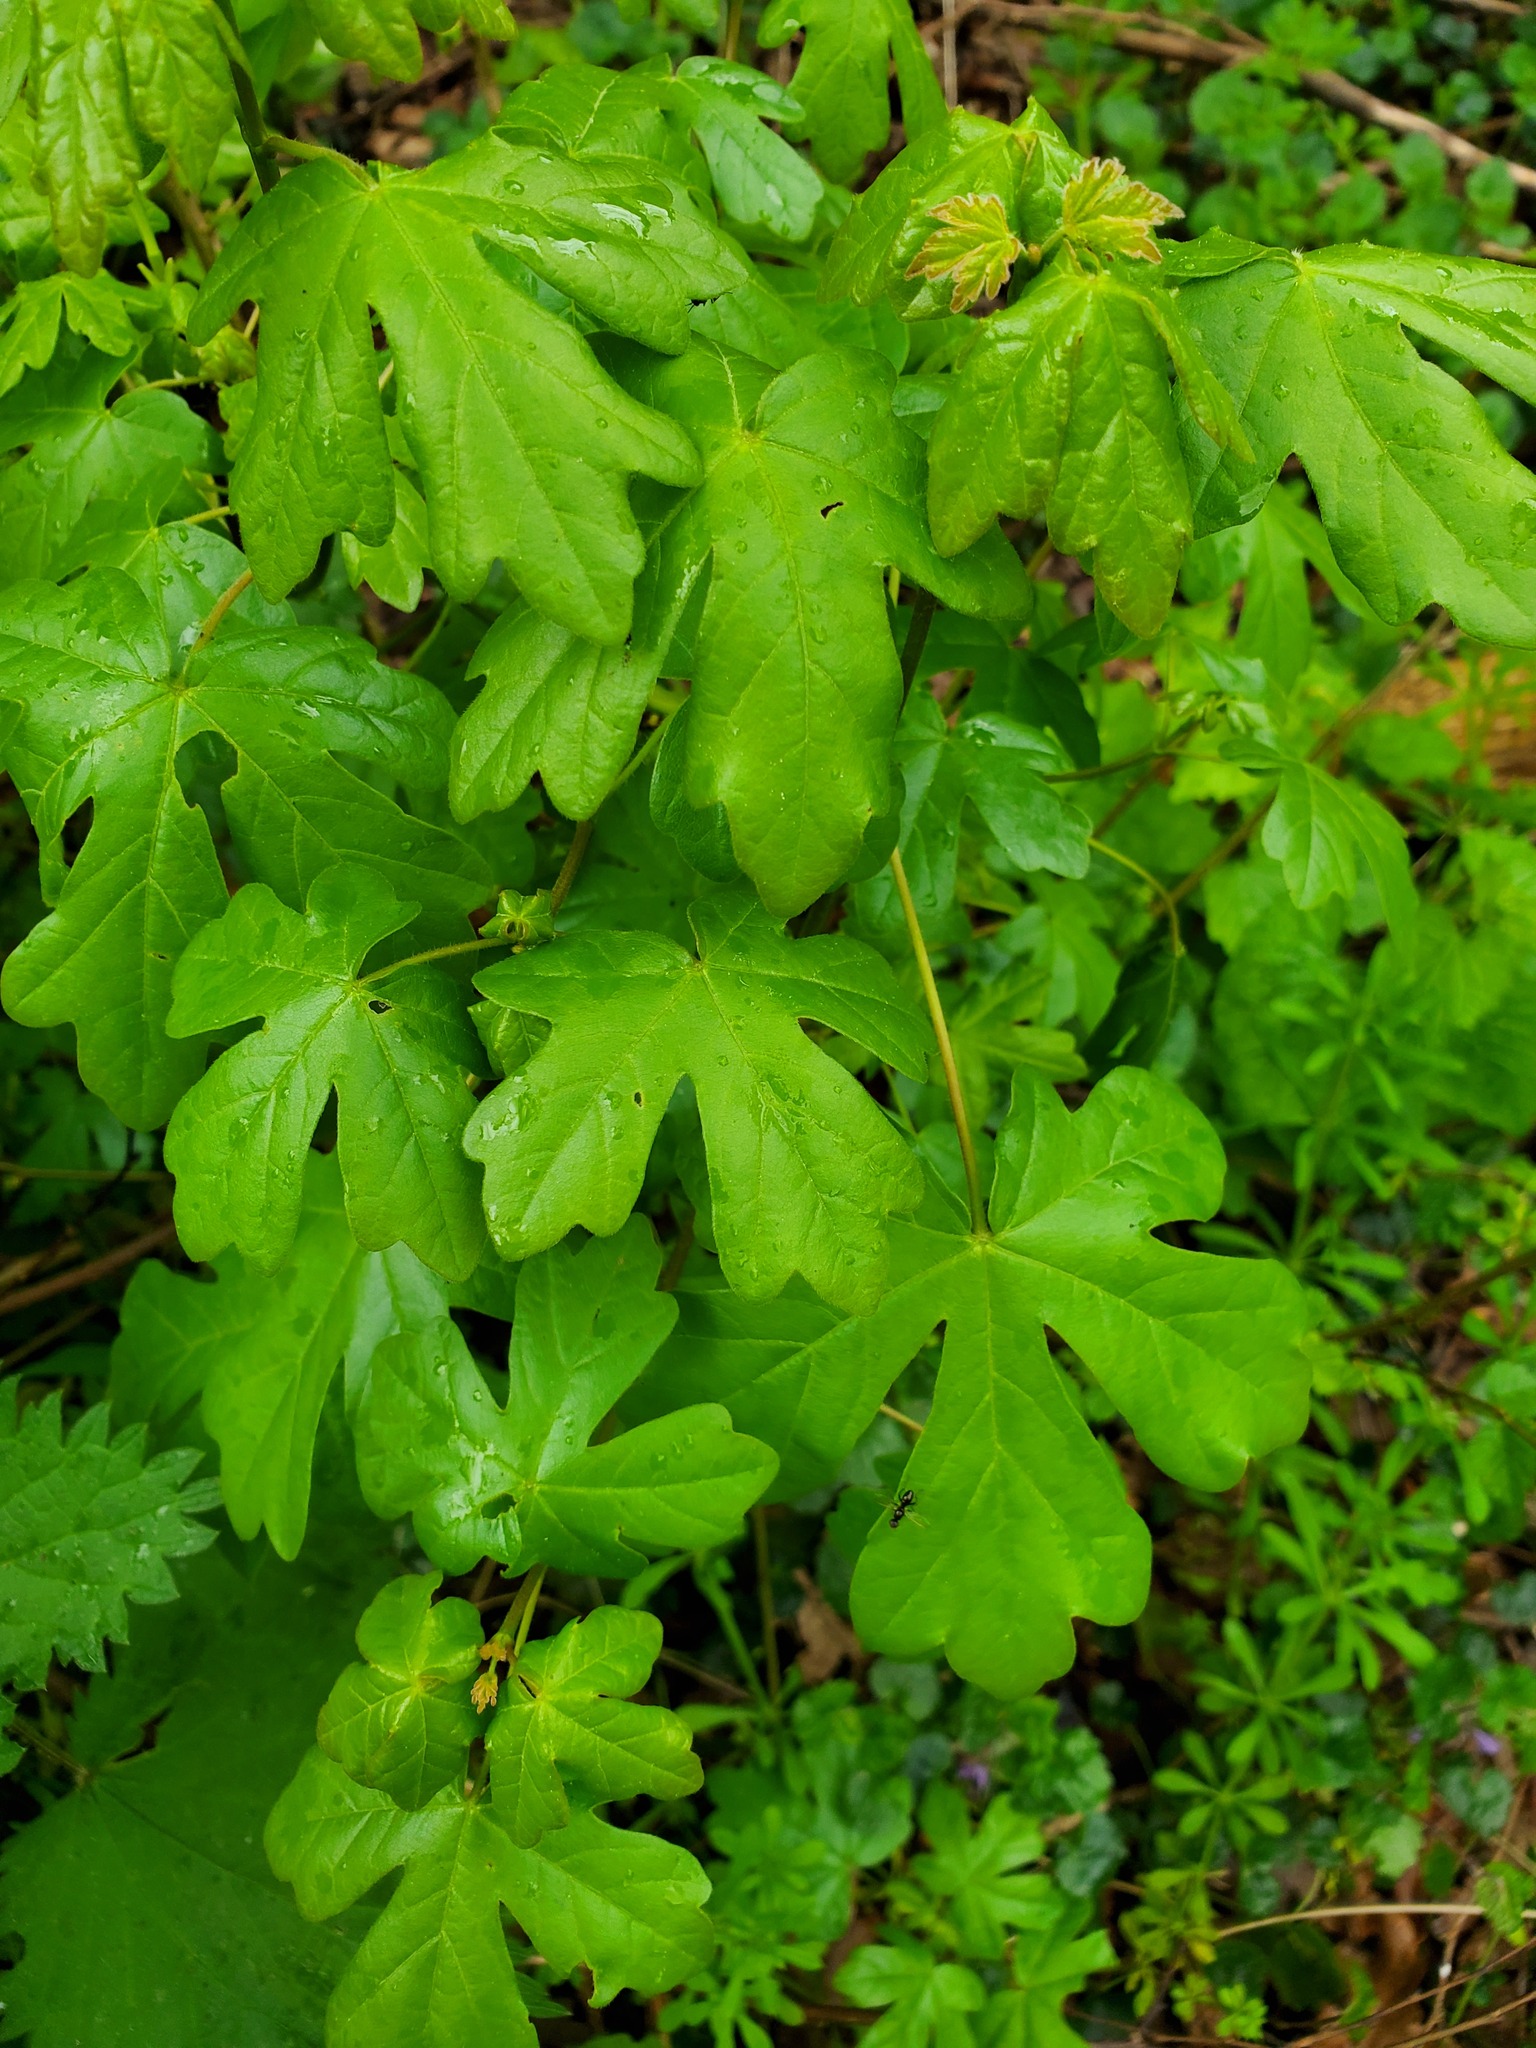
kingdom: Plantae
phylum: Tracheophyta
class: Magnoliopsida
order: Sapindales
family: Sapindaceae
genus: Acer
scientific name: Acer campestre
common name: Field maple
